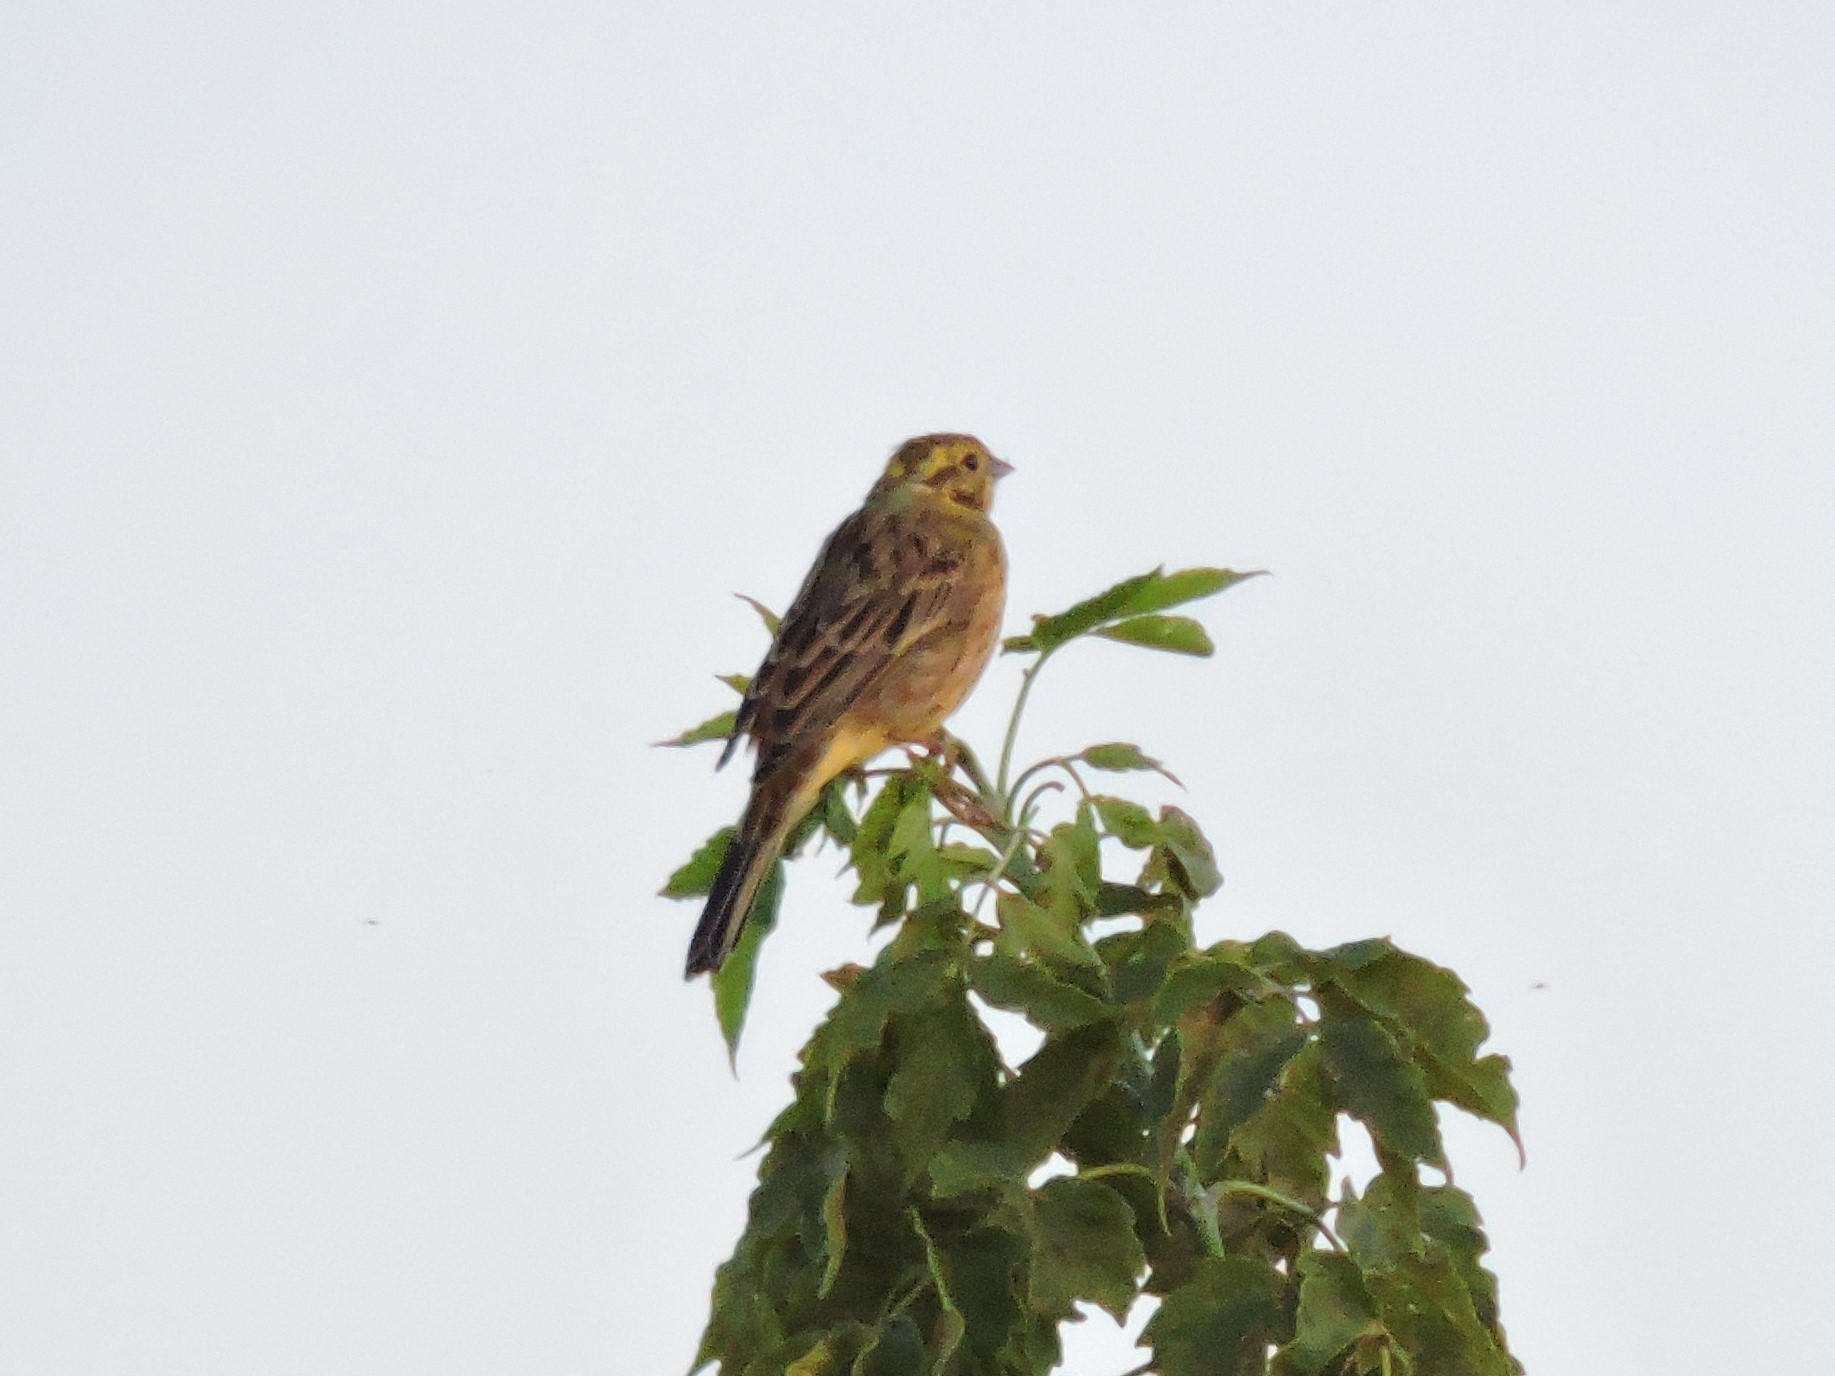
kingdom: Animalia
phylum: Chordata
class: Aves
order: Passeriformes
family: Emberizidae
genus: Emberiza
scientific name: Emberiza citrinella
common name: Yellowhammer
